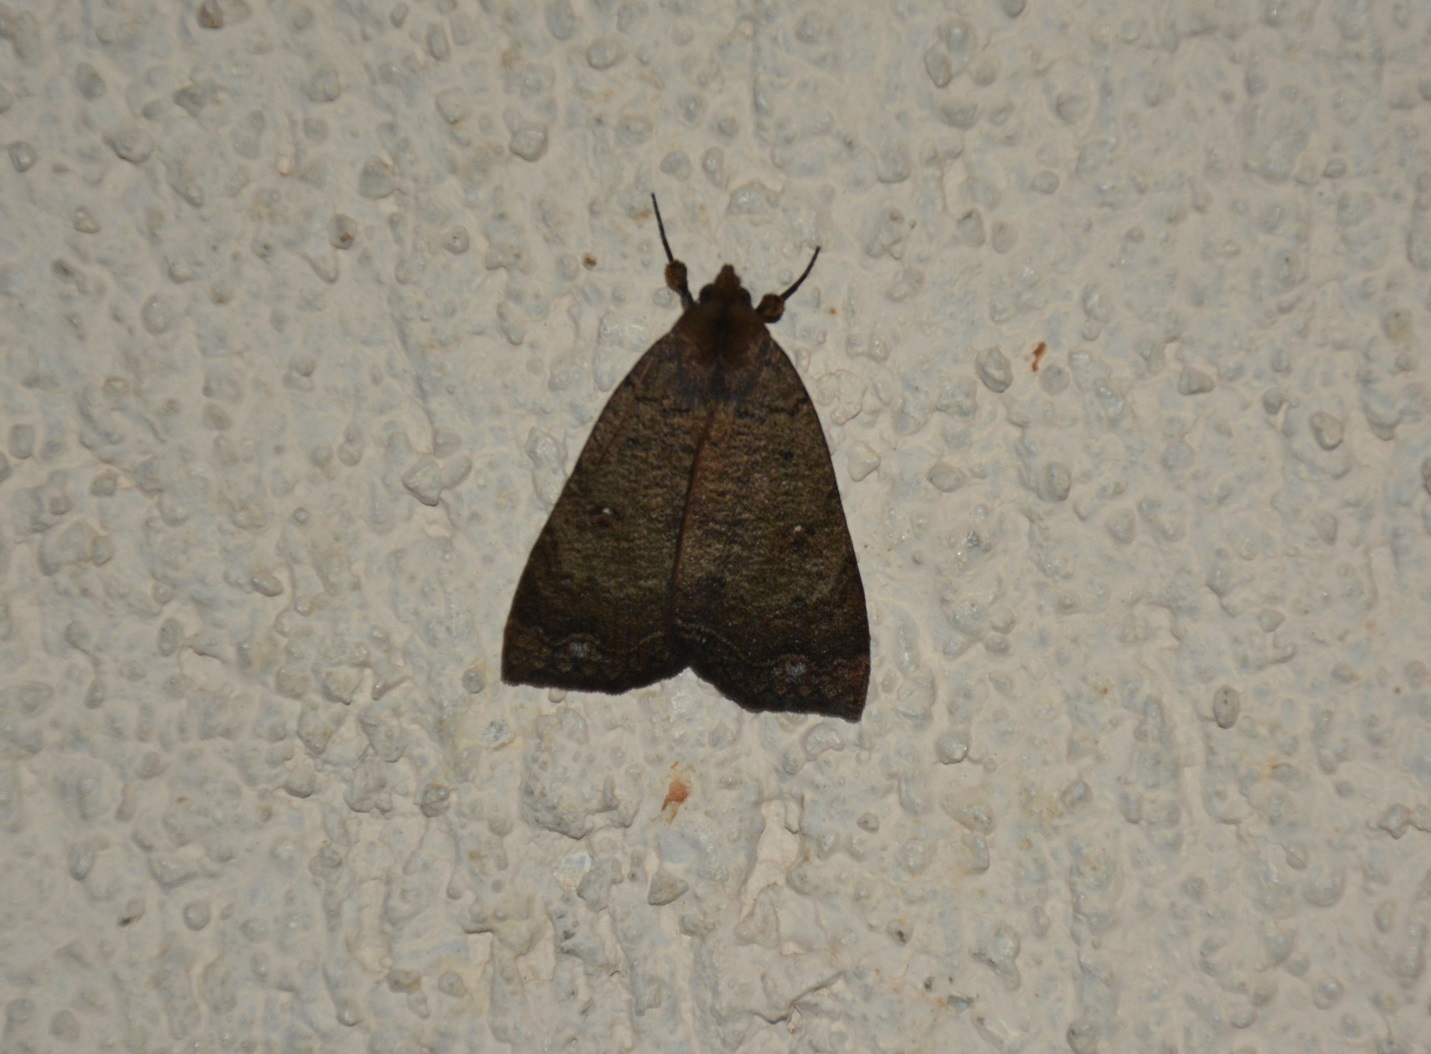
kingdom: Animalia
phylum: Arthropoda
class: Insecta
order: Lepidoptera
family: Erebidae
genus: Pyrgion
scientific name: Pyrgion repanda
